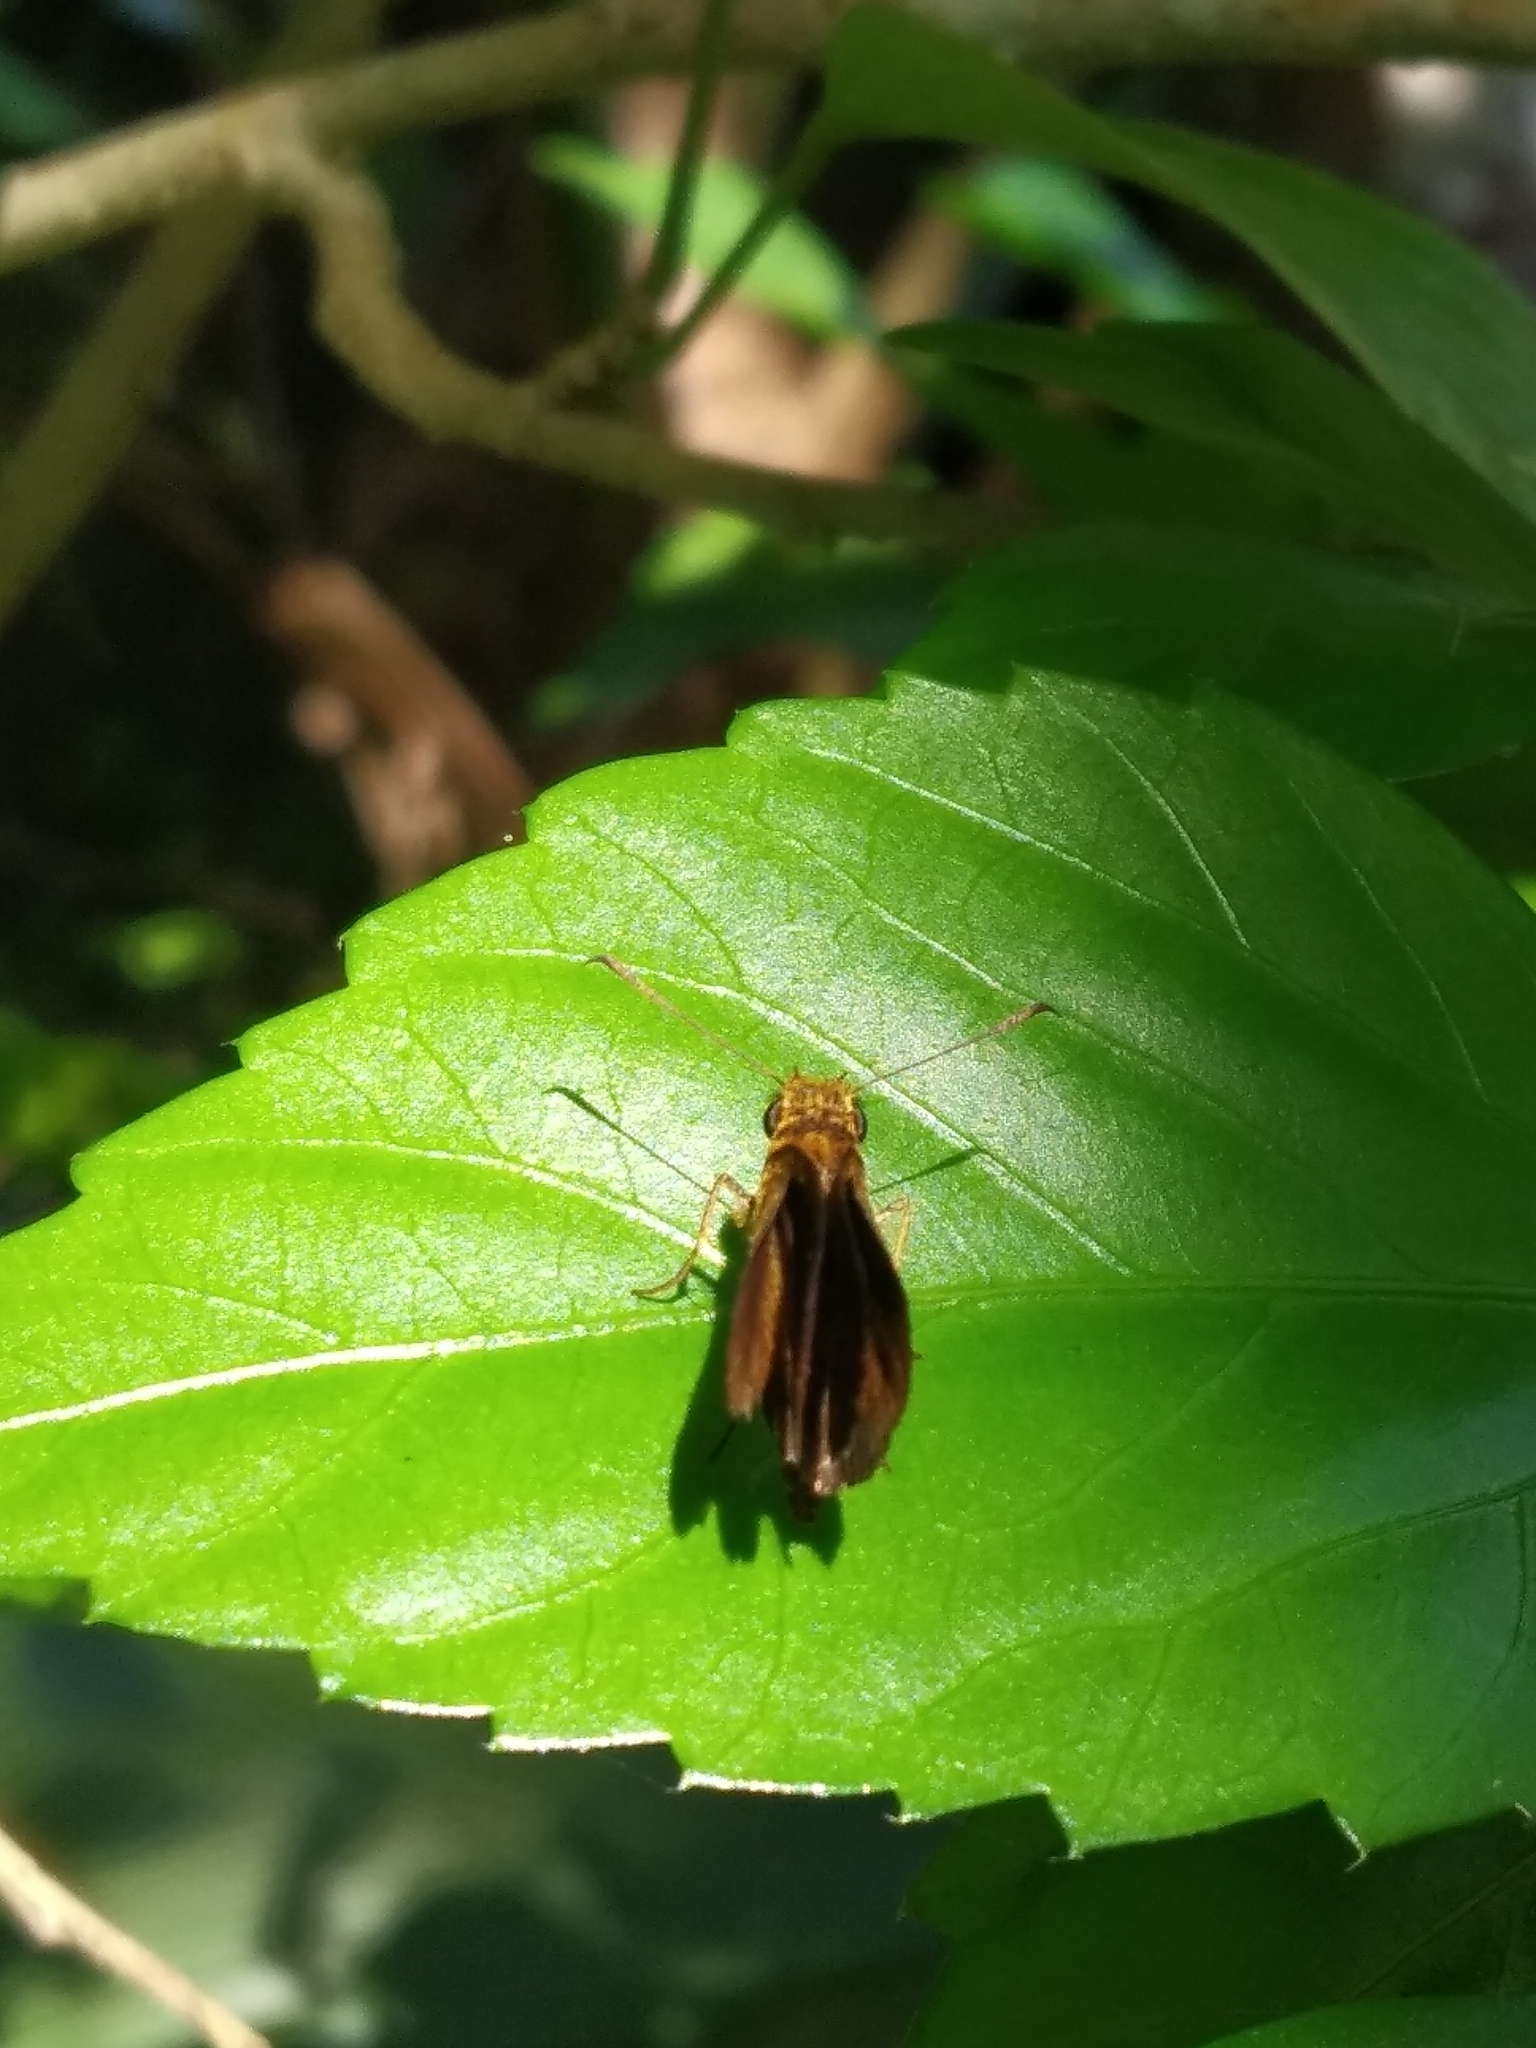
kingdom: Animalia
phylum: Arthropoda
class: Insecta
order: Lepidoptera
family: Hesperiidae
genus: Iambrix
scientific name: Iambrix salsala
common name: Chestnut bob
